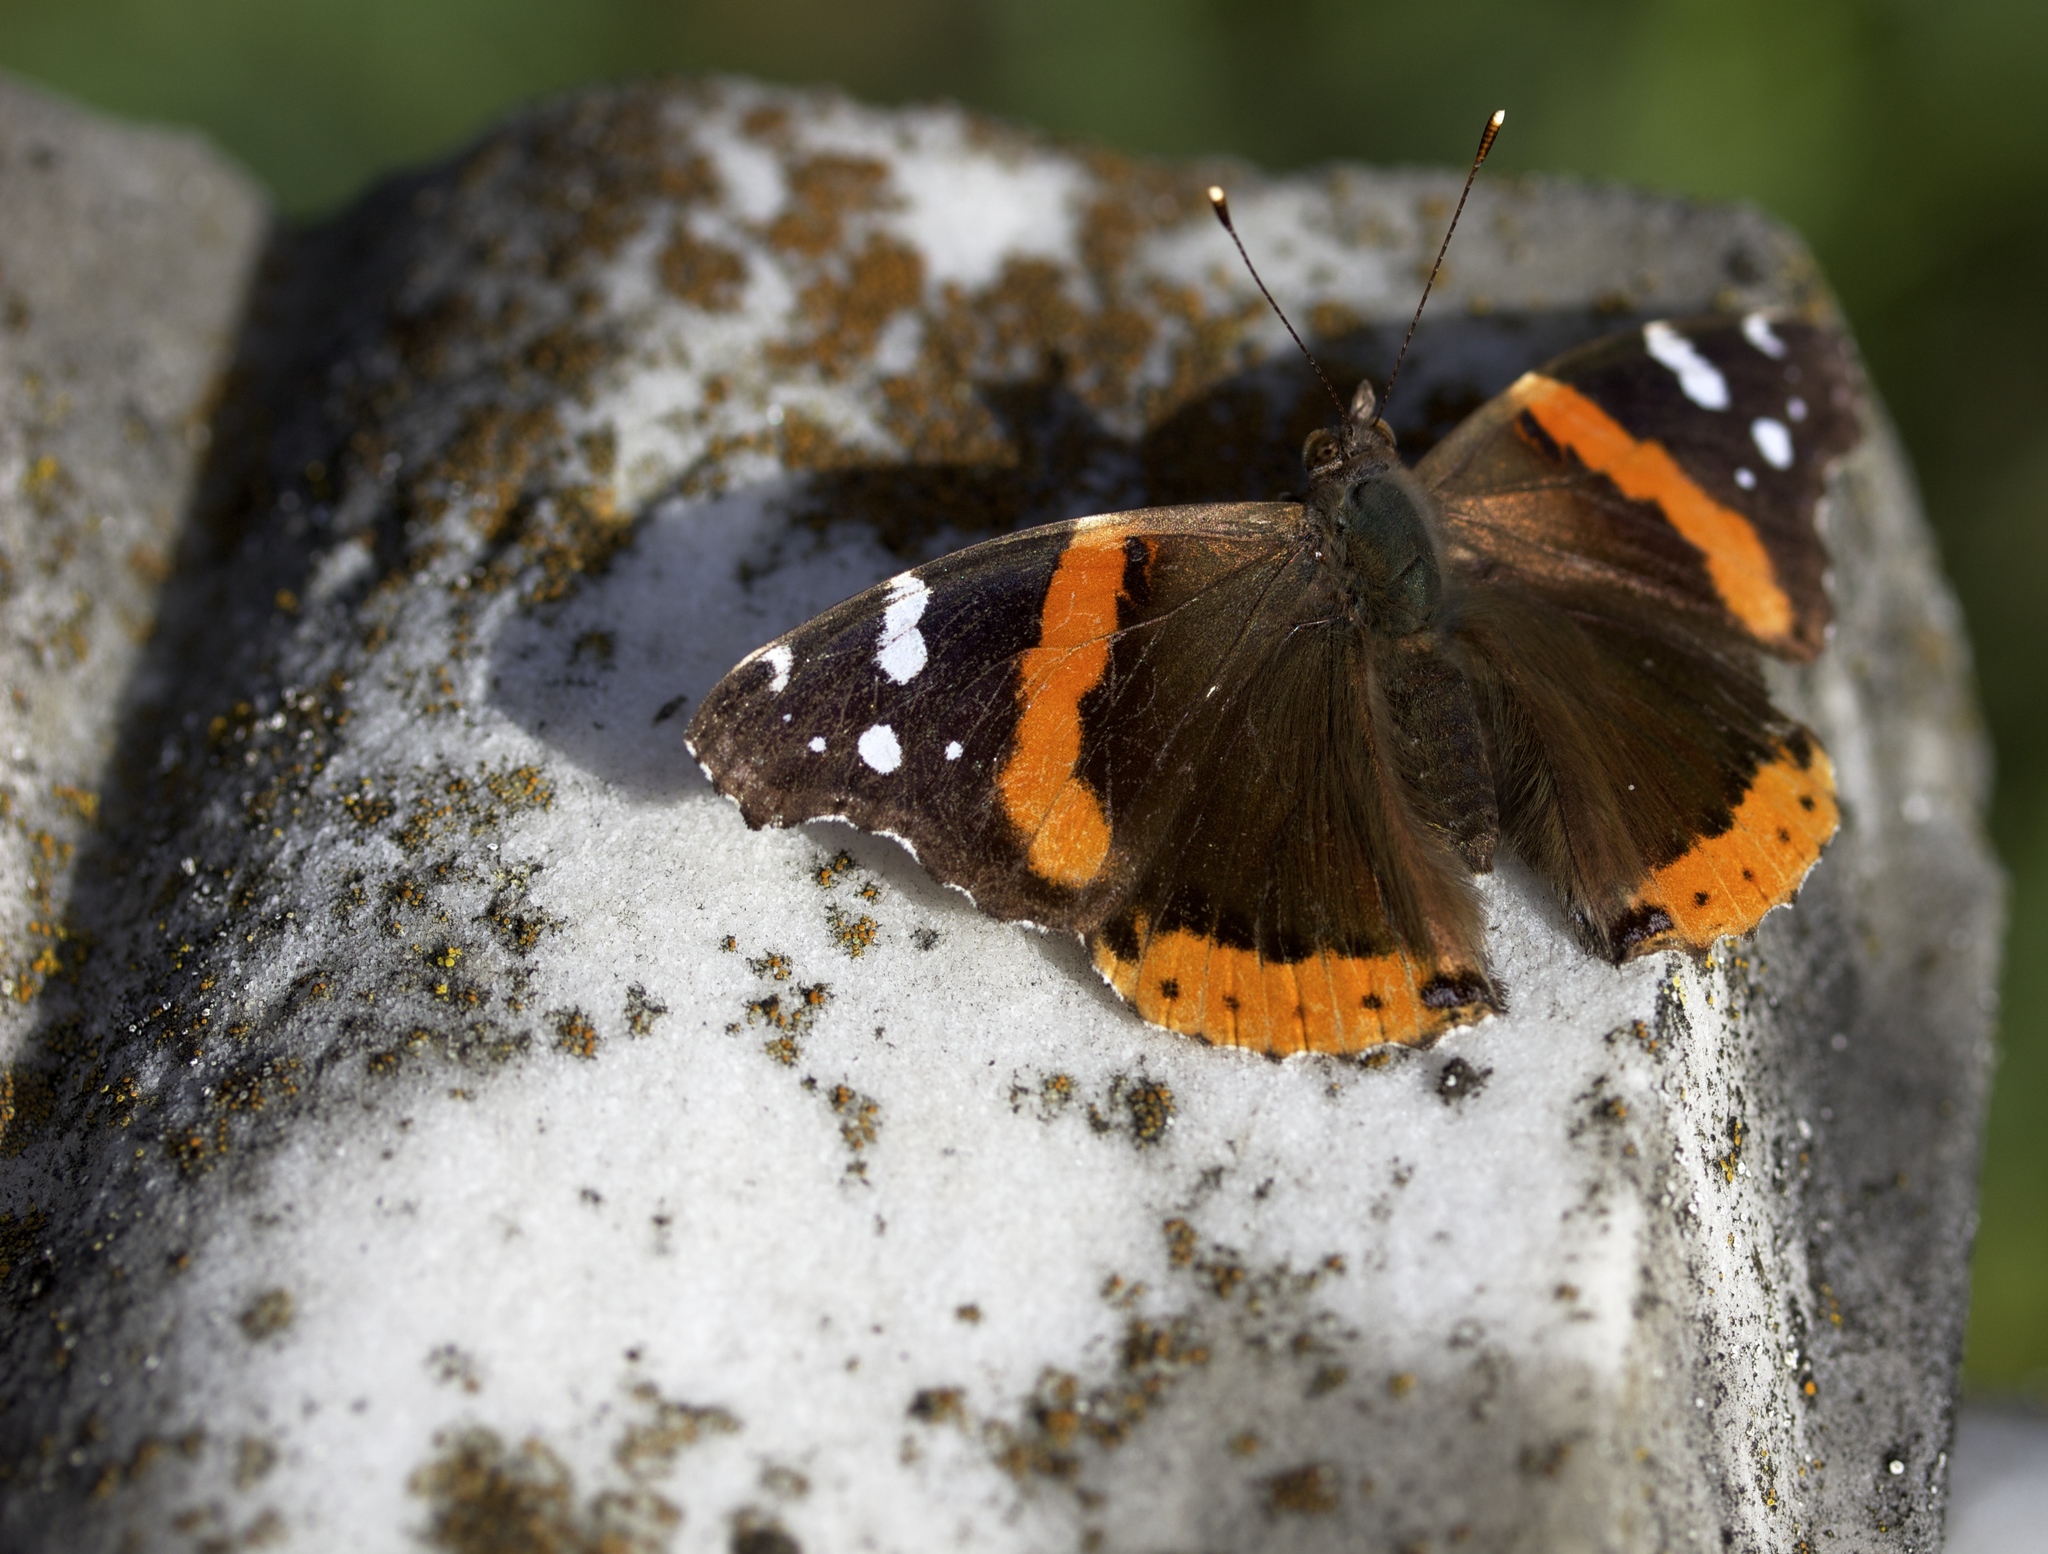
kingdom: Animalia
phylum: Arthropoda
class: Insecta
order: Lepidoptera
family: Nymphalidae
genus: Vanessa
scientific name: Vanessa atalanta
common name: Red admiral
